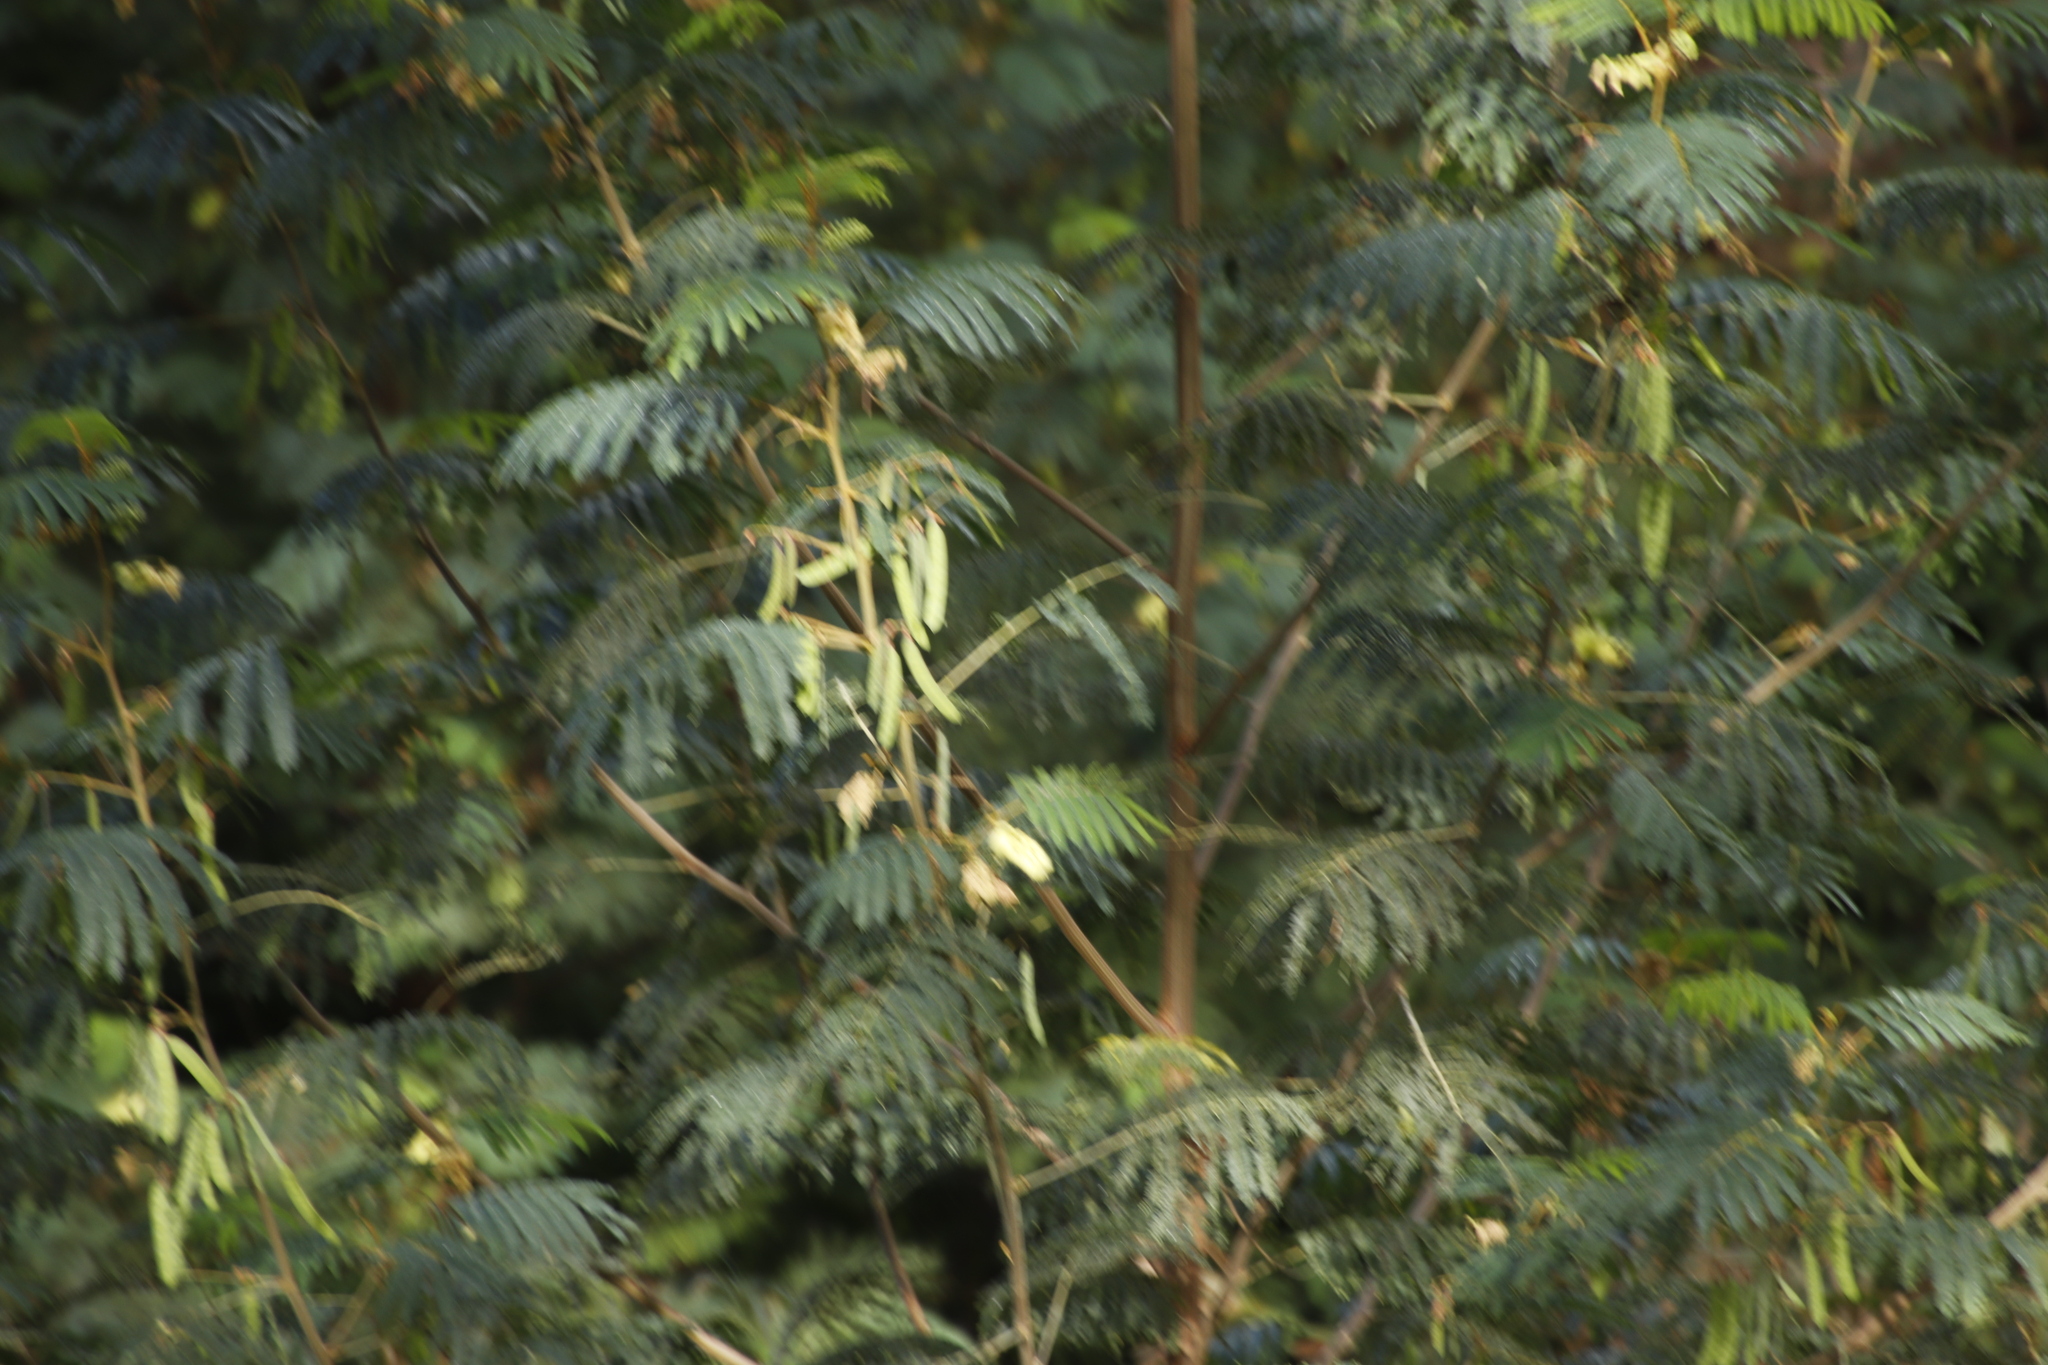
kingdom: Plantae
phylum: Tracheophyta
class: Magnoliopsida
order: Fabales
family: Fabaceae
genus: Paraserianthes
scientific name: Paraserianthes lophantha
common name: Plume albizia
